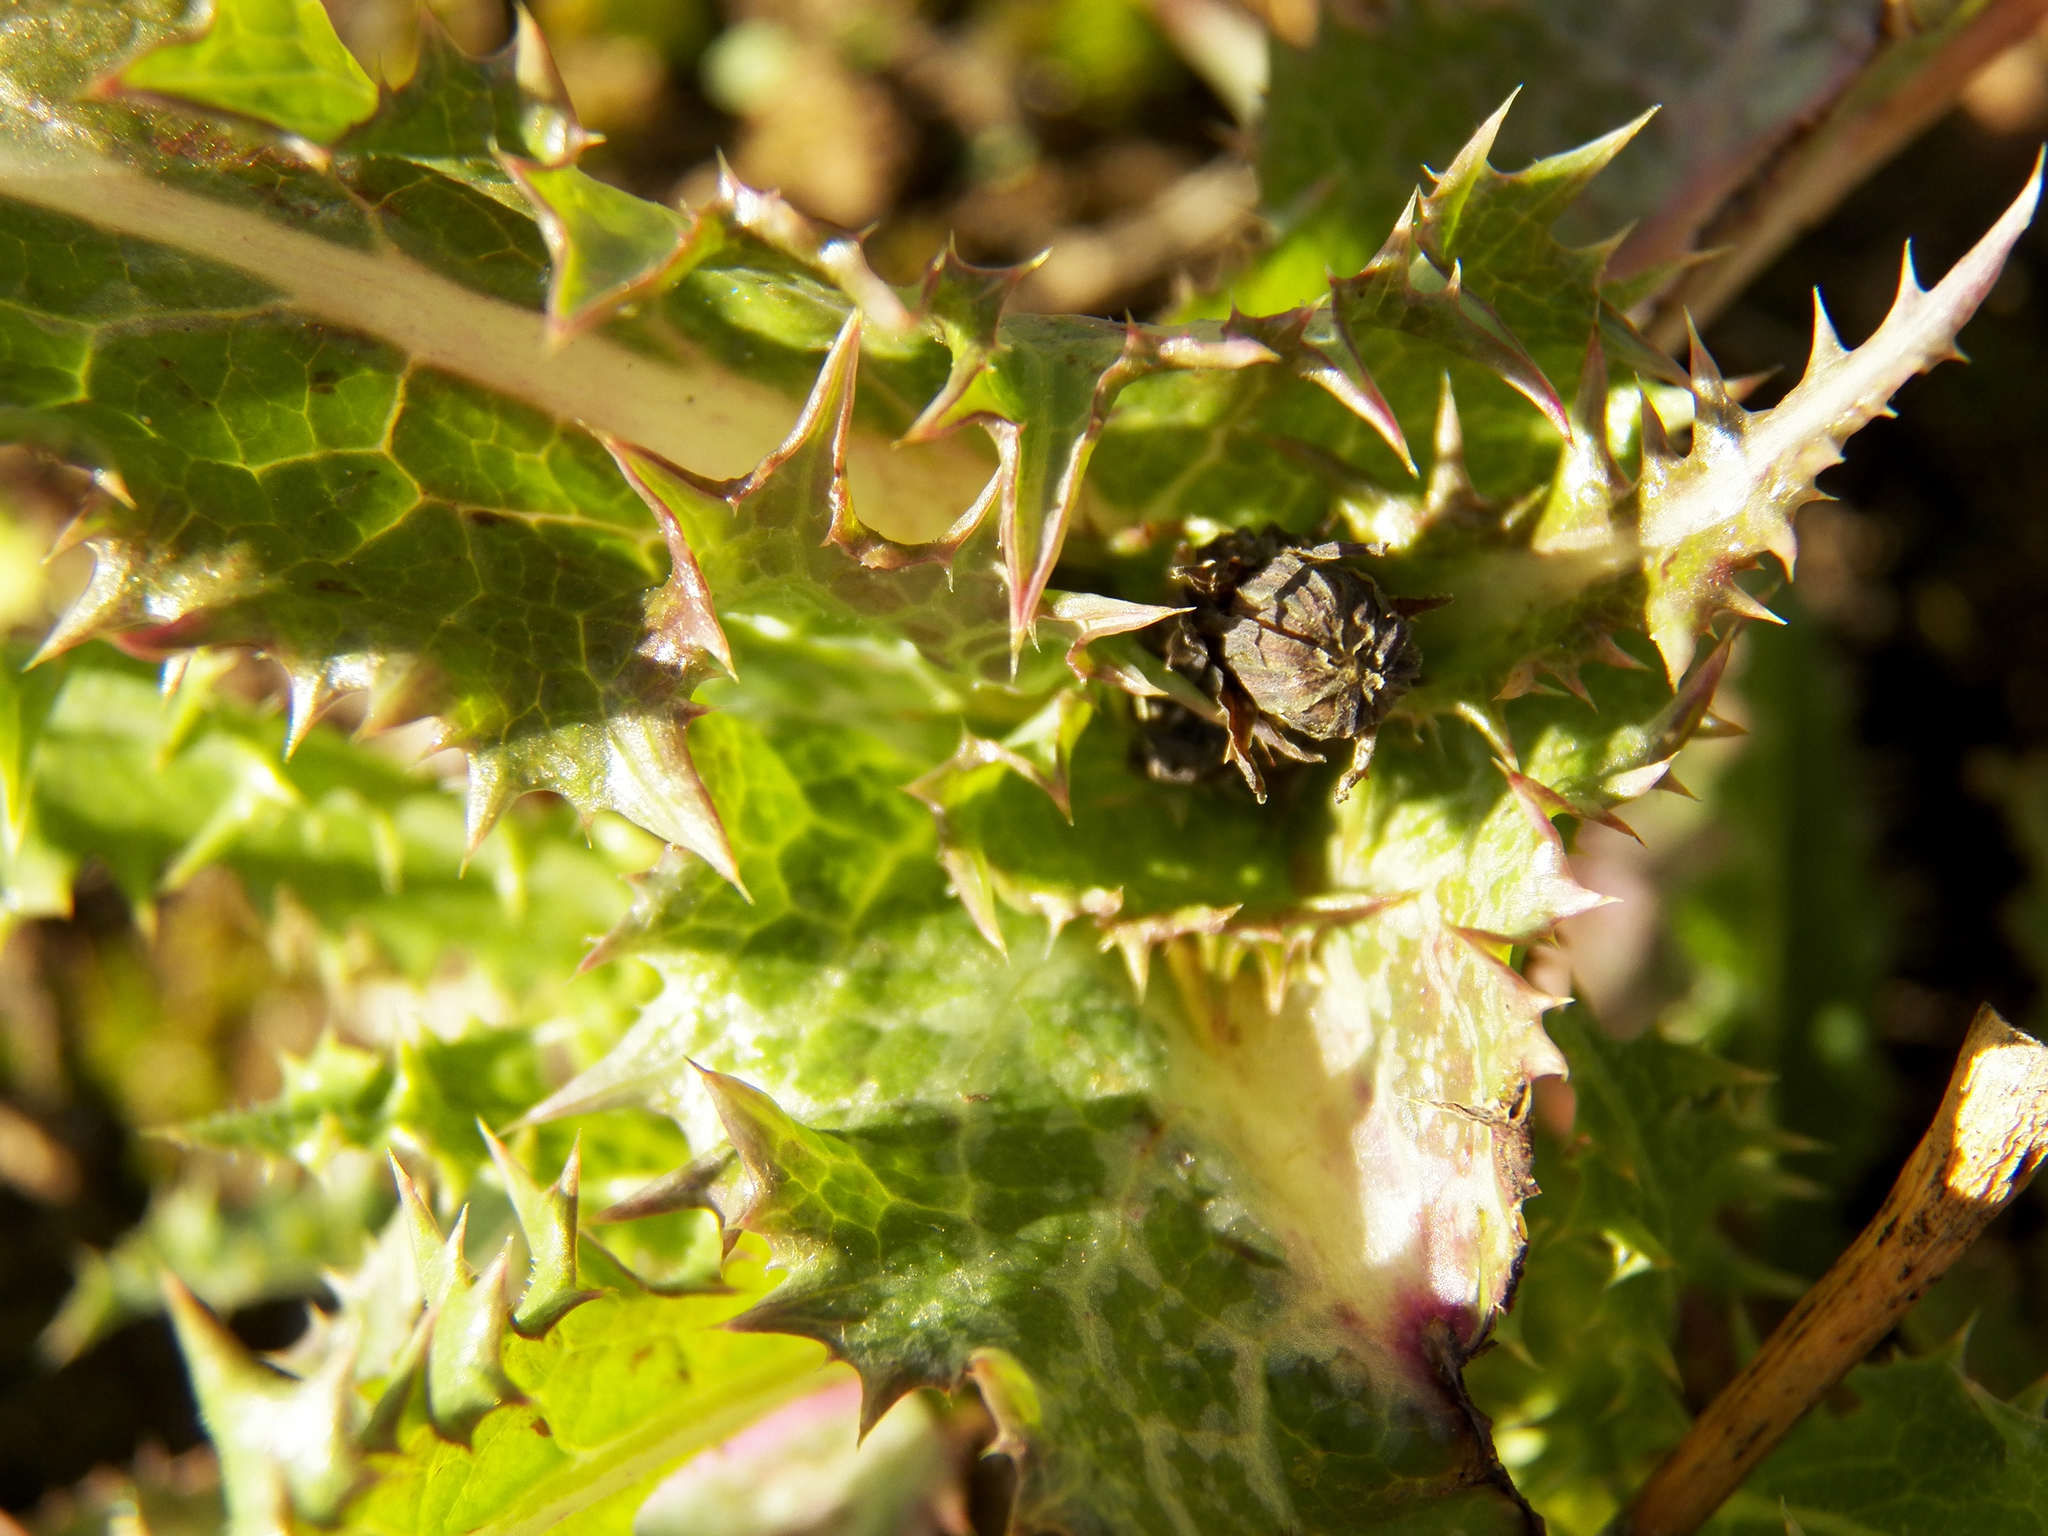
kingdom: Plantae
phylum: Tracheophyta
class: Magnoliopsida
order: Asterales
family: Asteraceae
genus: Sonchus
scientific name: Sonchus asper
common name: Prickly sow-thistle
